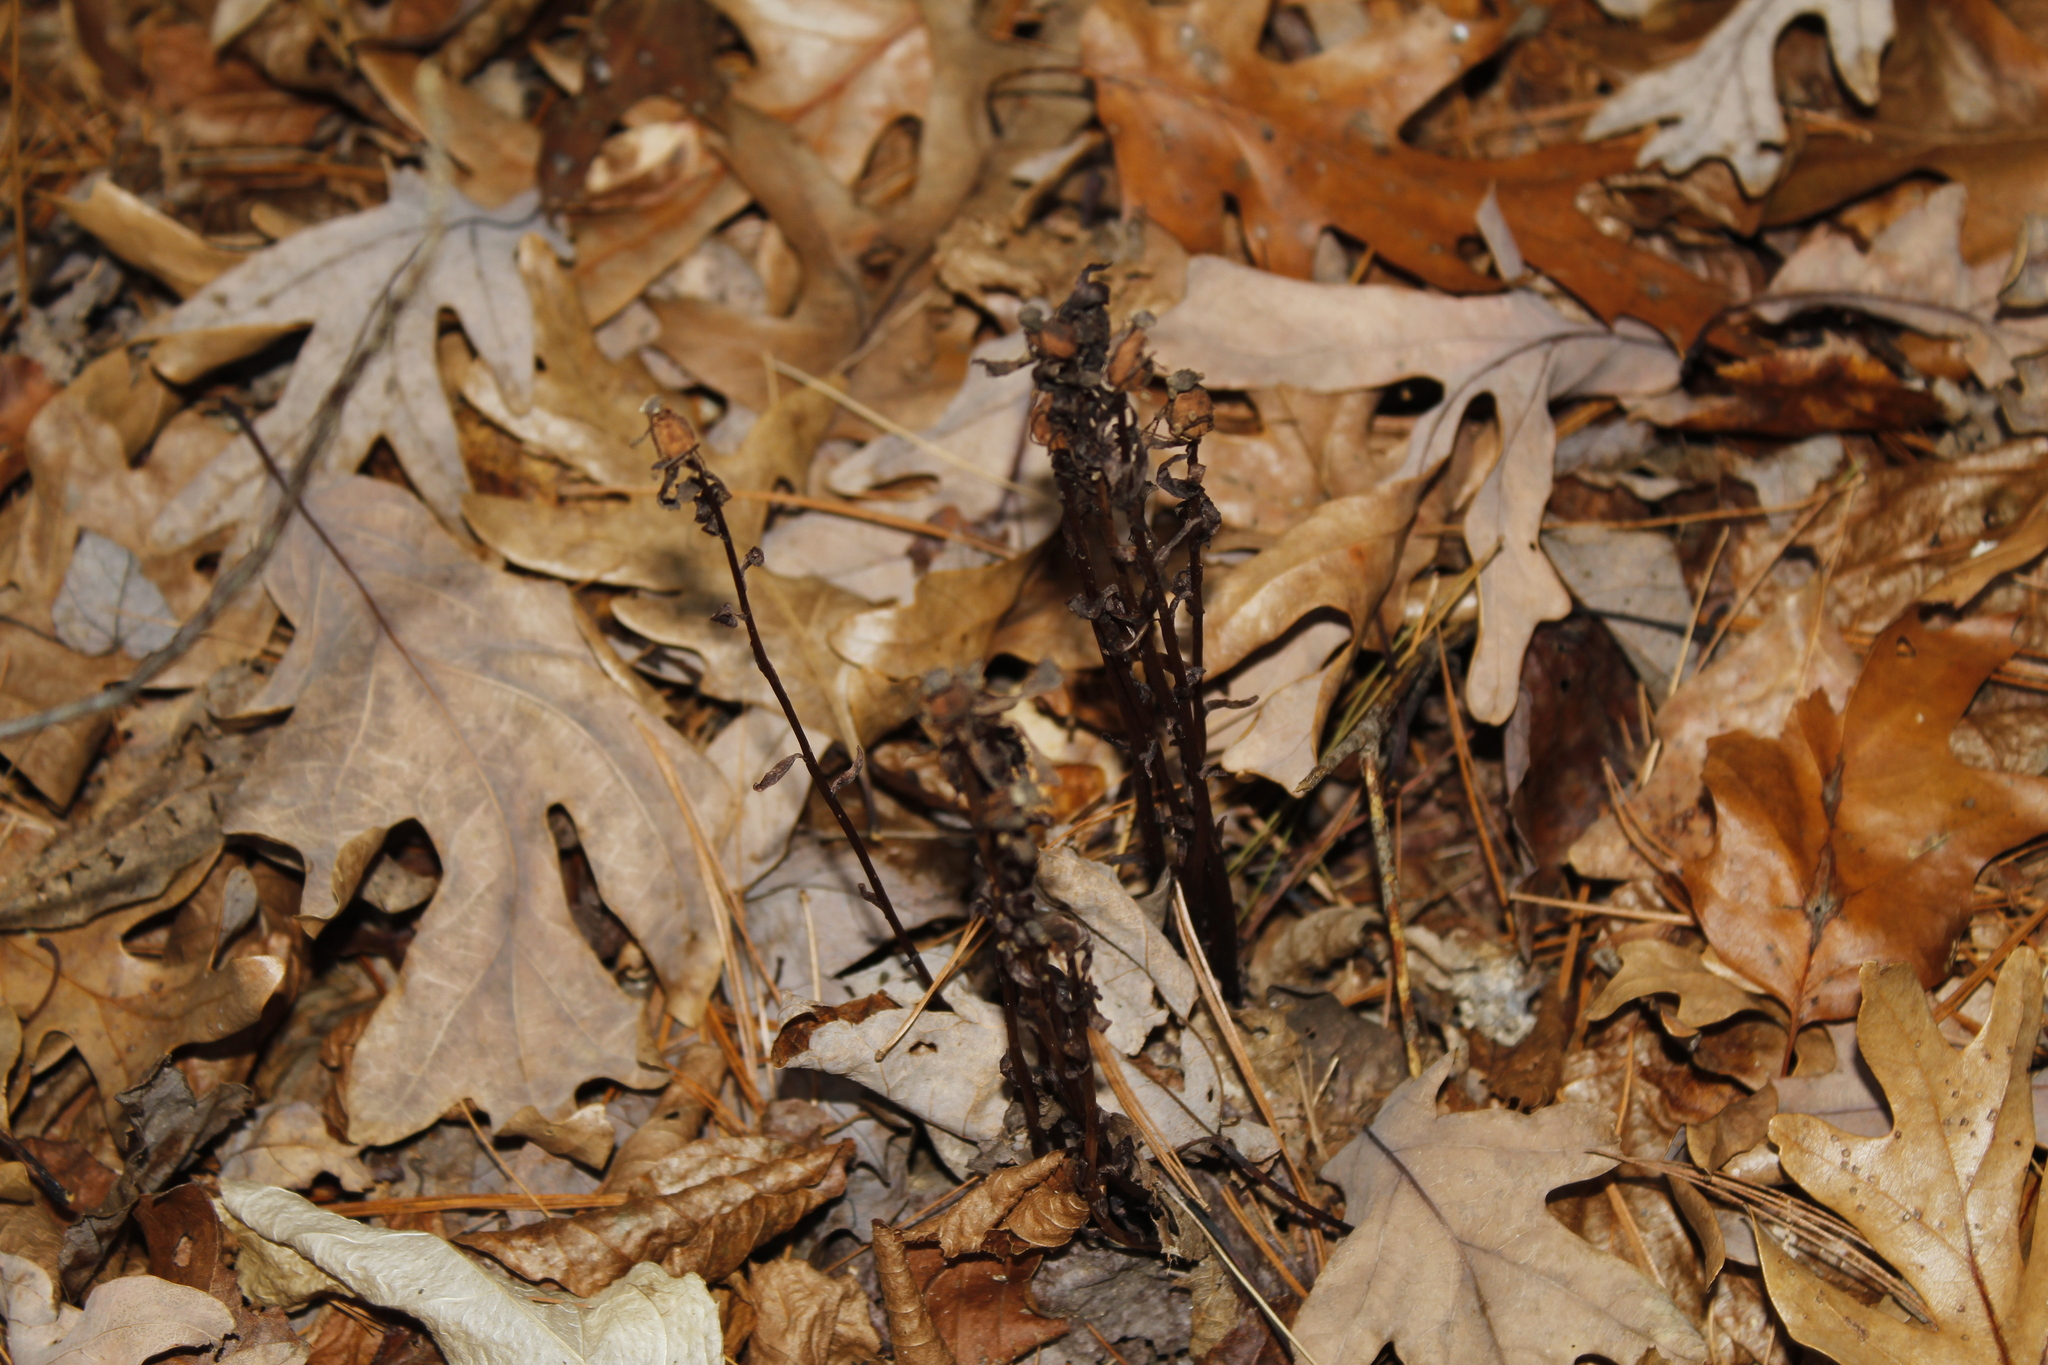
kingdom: Plantae
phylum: Tracheophyta
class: Magnoliopsida
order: Ericales
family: Ericaceae
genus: Monotropa
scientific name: Monotropa uniflora
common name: Convulsion root
